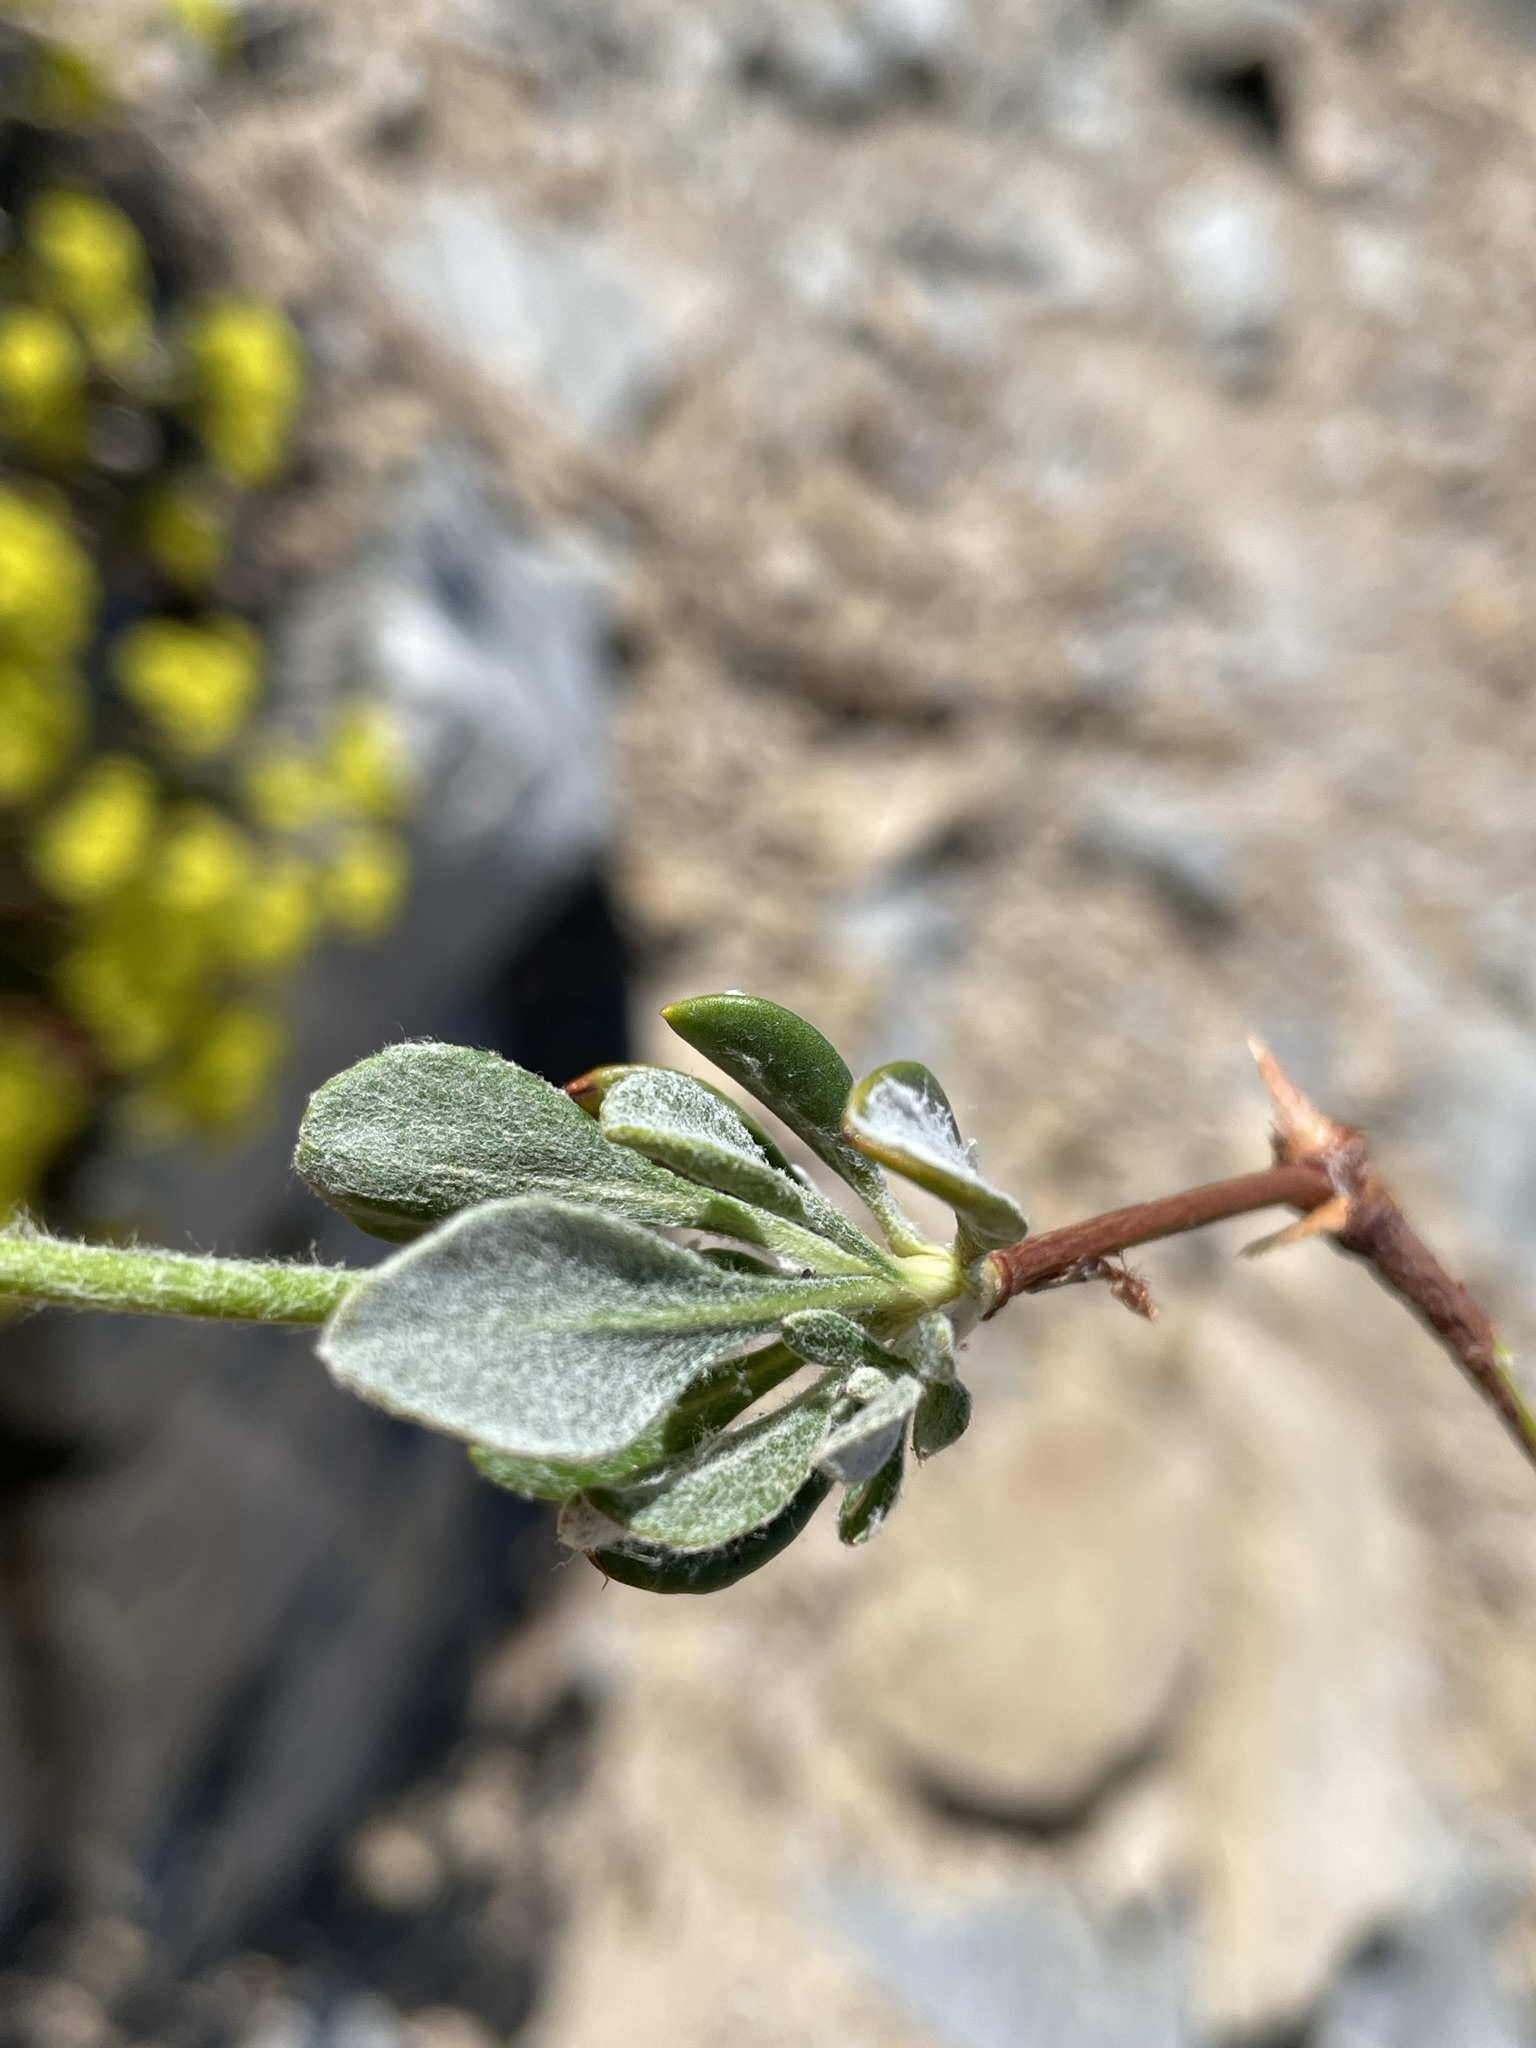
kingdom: Plantae
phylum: Tracheophyta
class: Magnoliopsida
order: Caryophyllales
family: Polygonaceae
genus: Eriogonum
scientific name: Eriogonum umbellatum
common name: Sulfur-buckwheat
